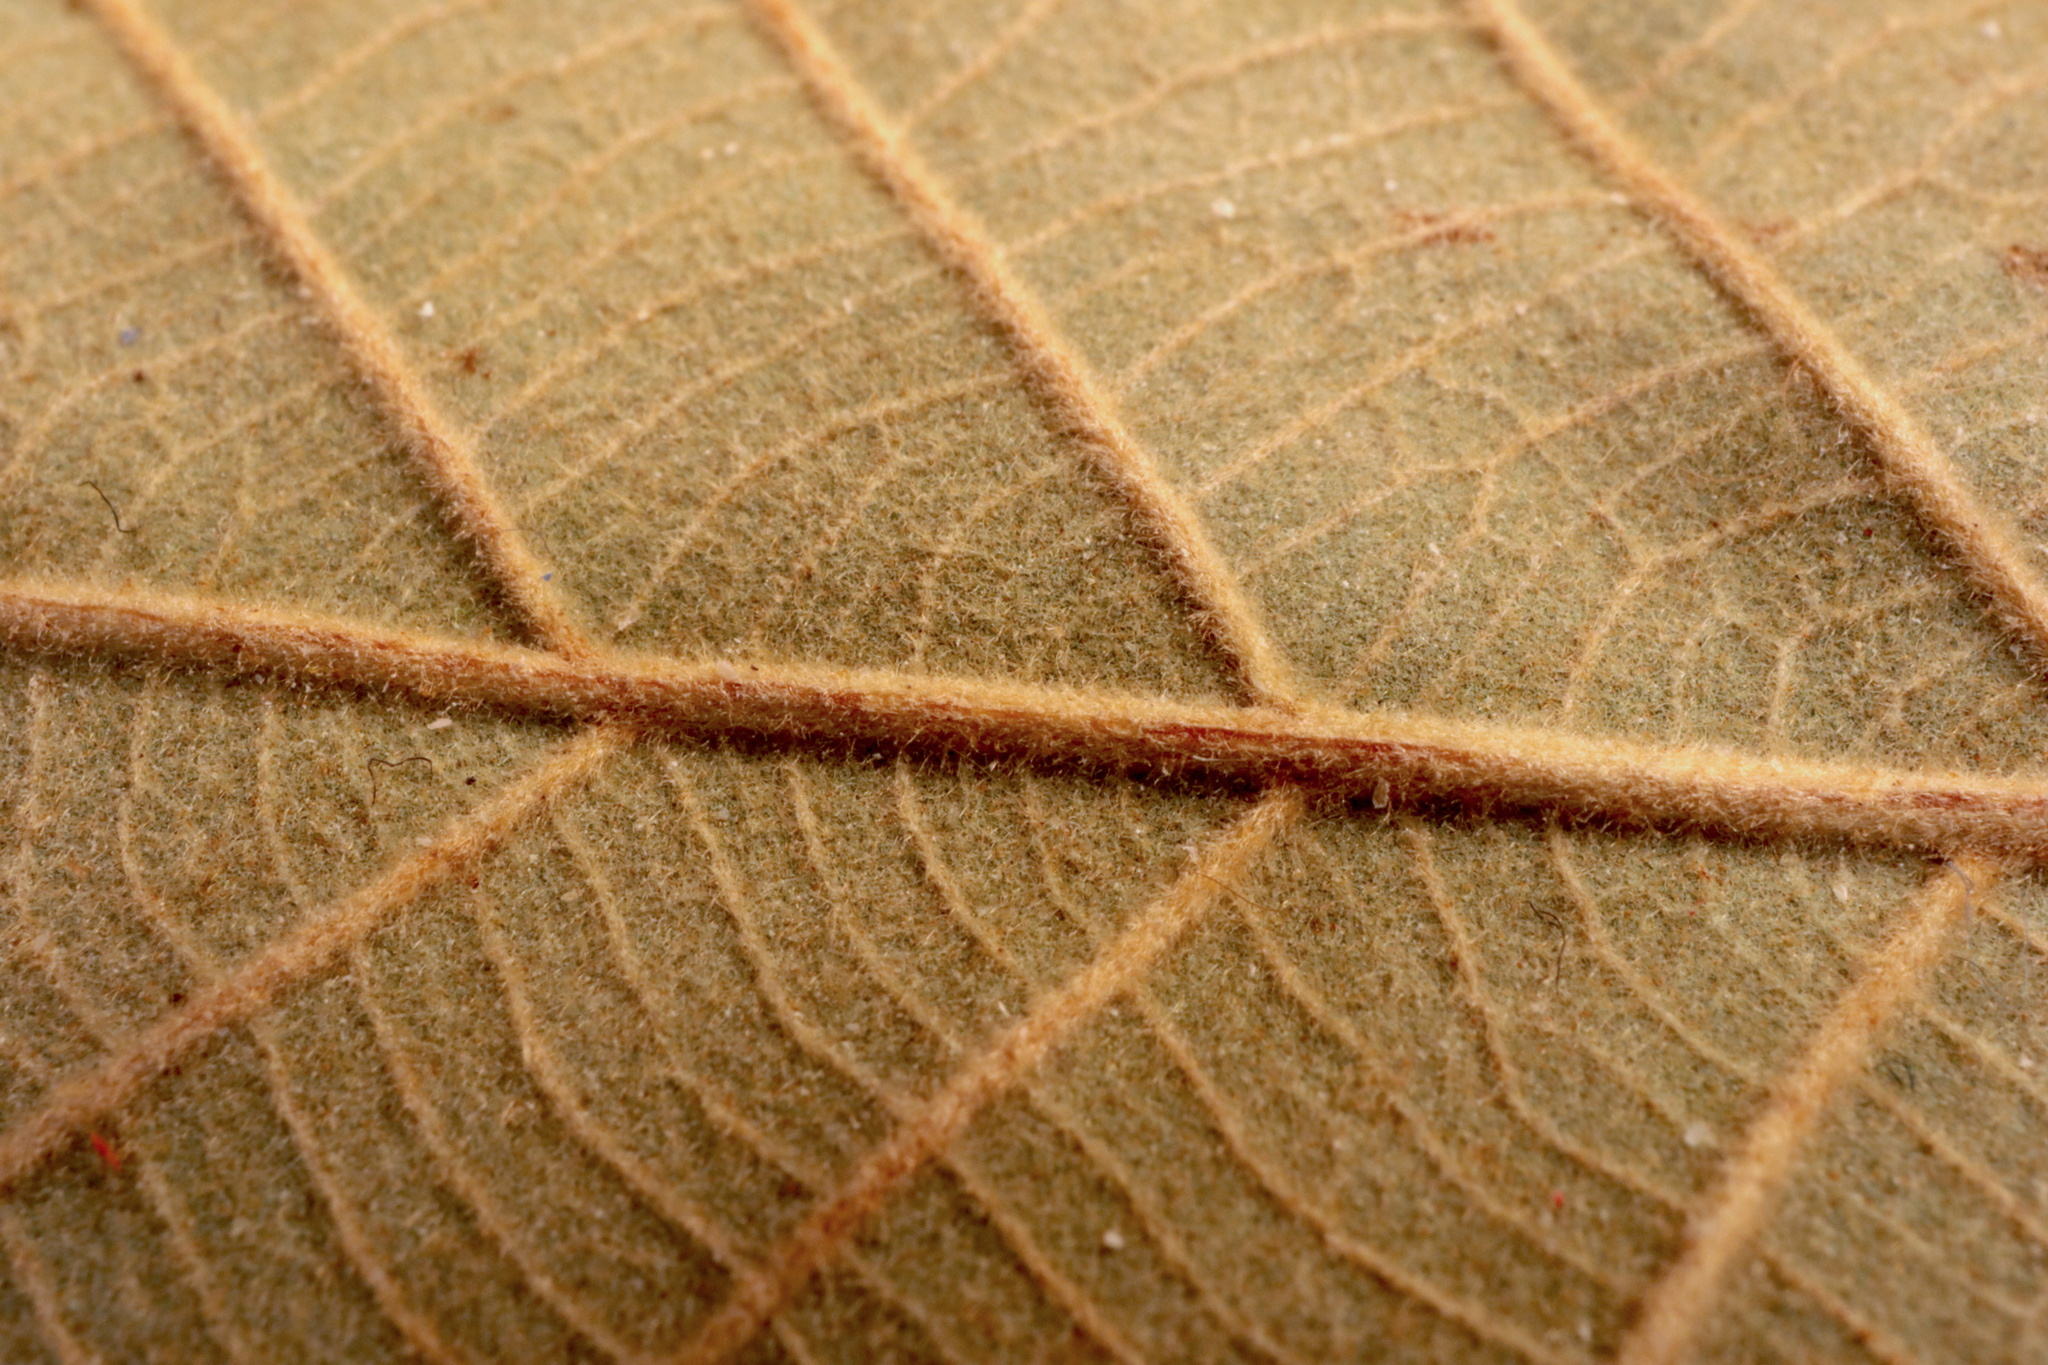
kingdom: Plantae
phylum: Tracheophyta
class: Magnoliopsida
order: Fagales
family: Fagaceae
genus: Quercus
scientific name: Quercus michauxii
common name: Swamp chestnut oak
